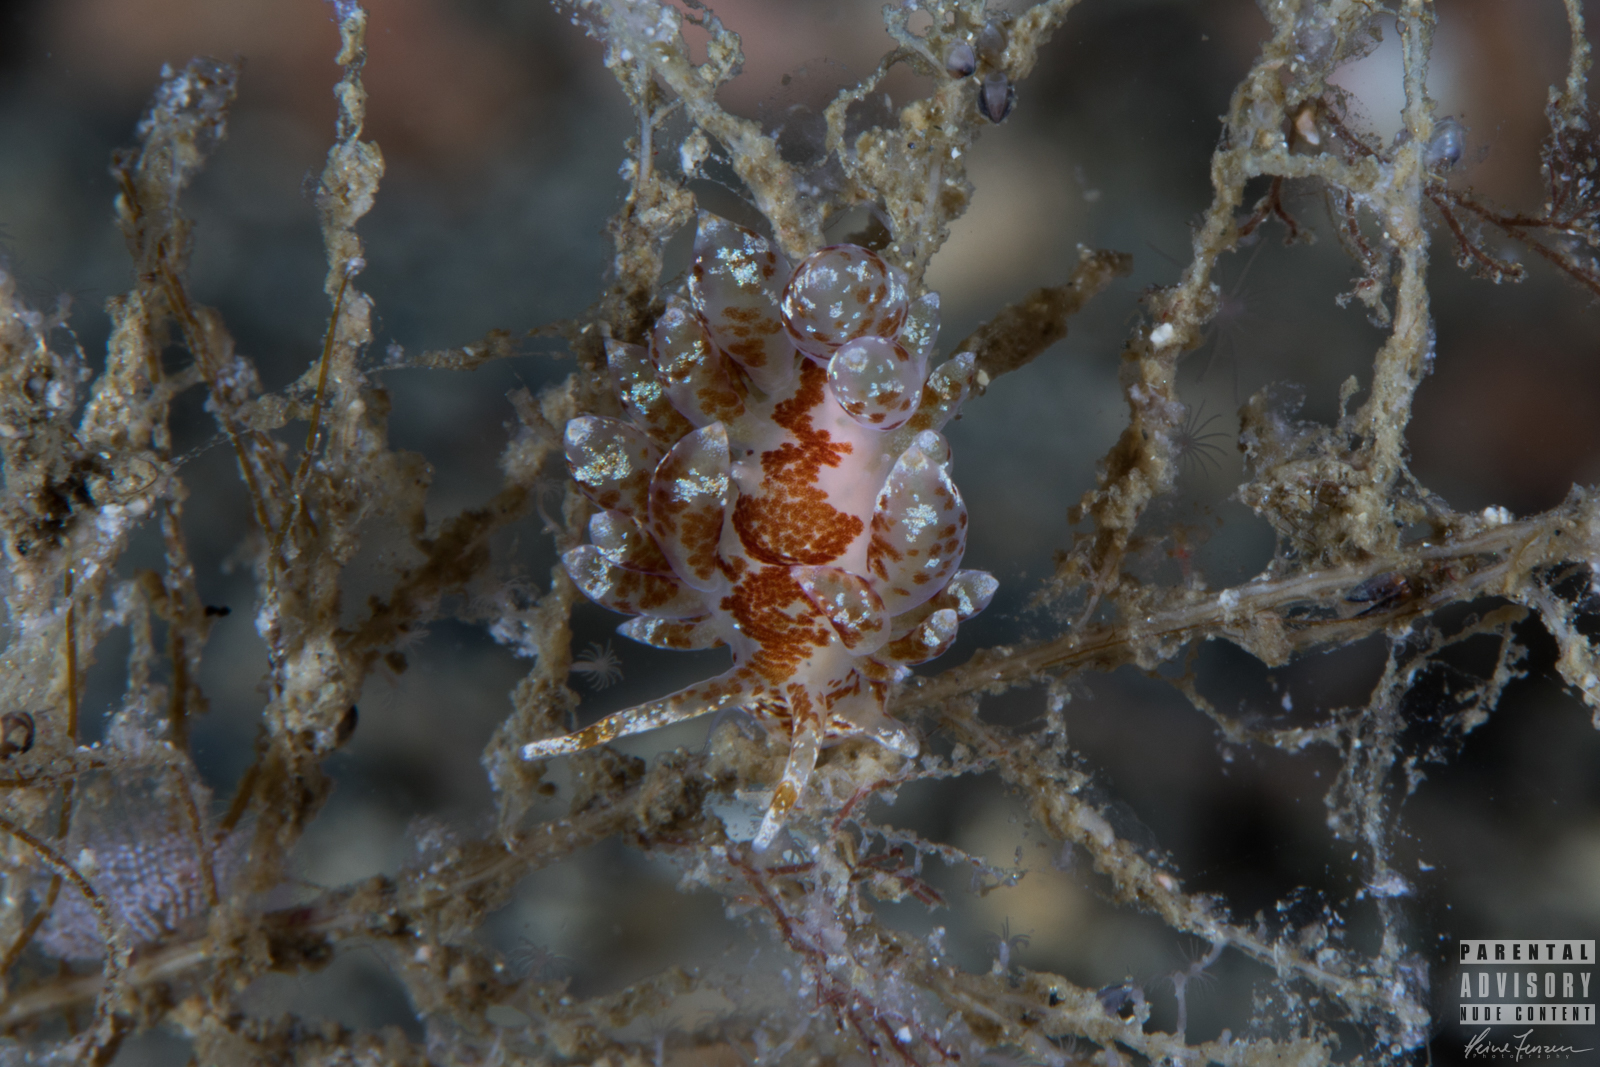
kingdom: Animalia
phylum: Mollusca
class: Gastropoda
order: Nudibranchia
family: Eubranchidae
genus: Amphorina
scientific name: Amphorina pallida
